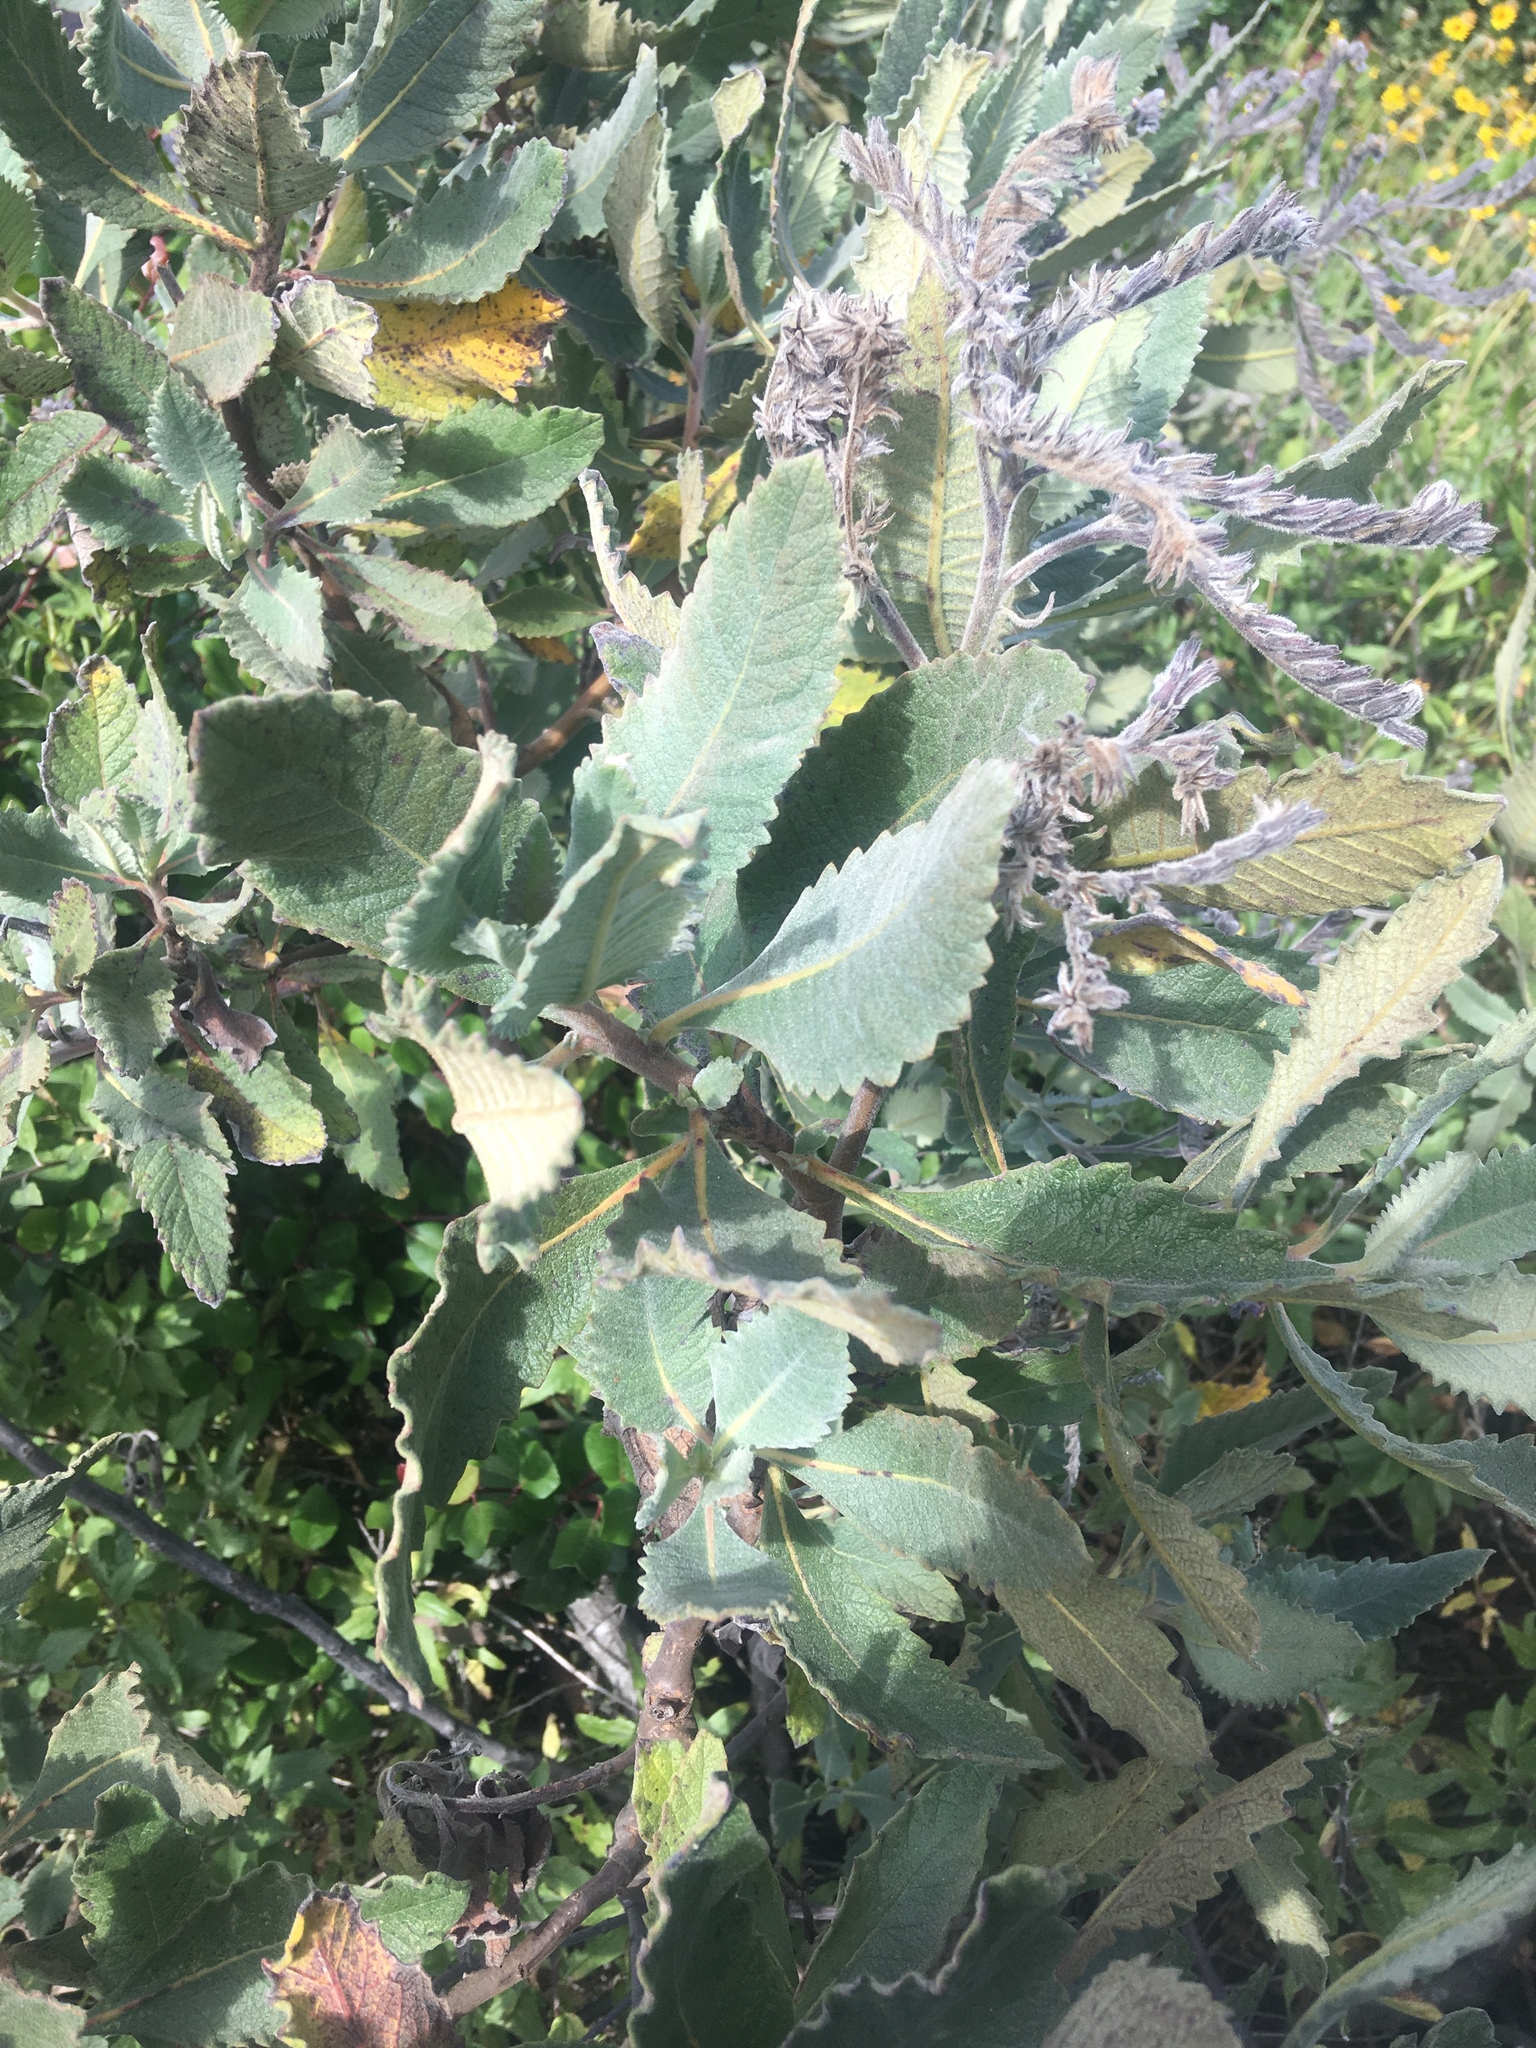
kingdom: Plantae
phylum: Tracheophyta
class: Magnoliopsida
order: Boraginales
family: Namaceae
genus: Eriodictyon
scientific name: Eriodictyon crassifolium
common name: Thick-leaf yerba-santa
